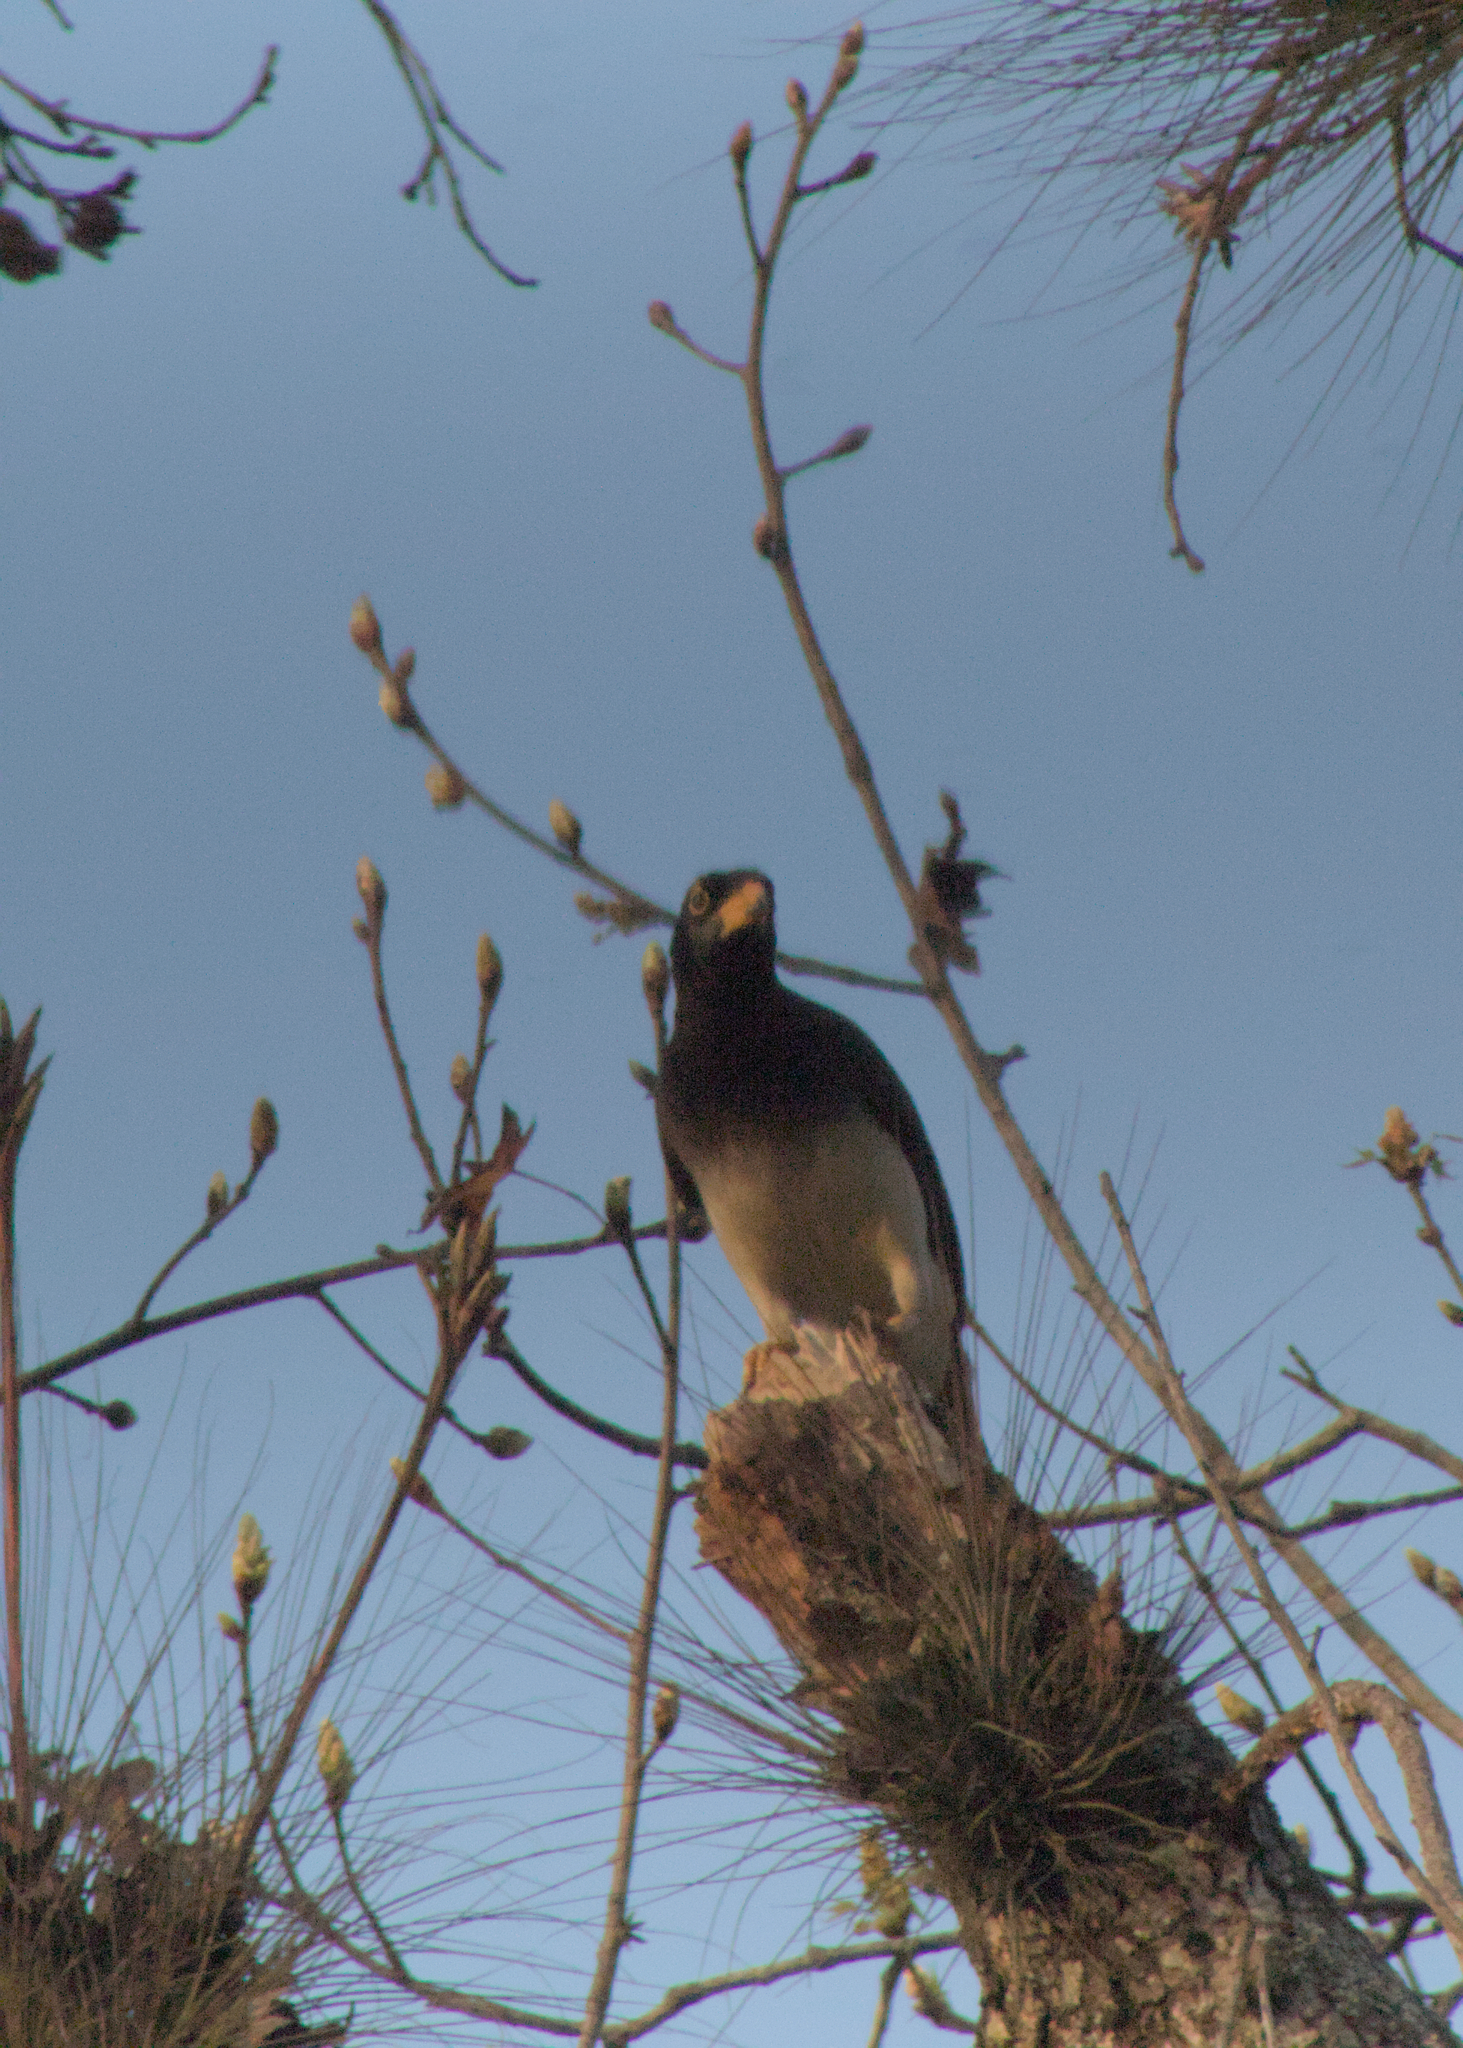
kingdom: Animalia
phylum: Chordata
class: Aves
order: Passeriformes
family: Corvidae
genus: Psilorhinus
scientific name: Psilorhinus morio
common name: Brown jay
